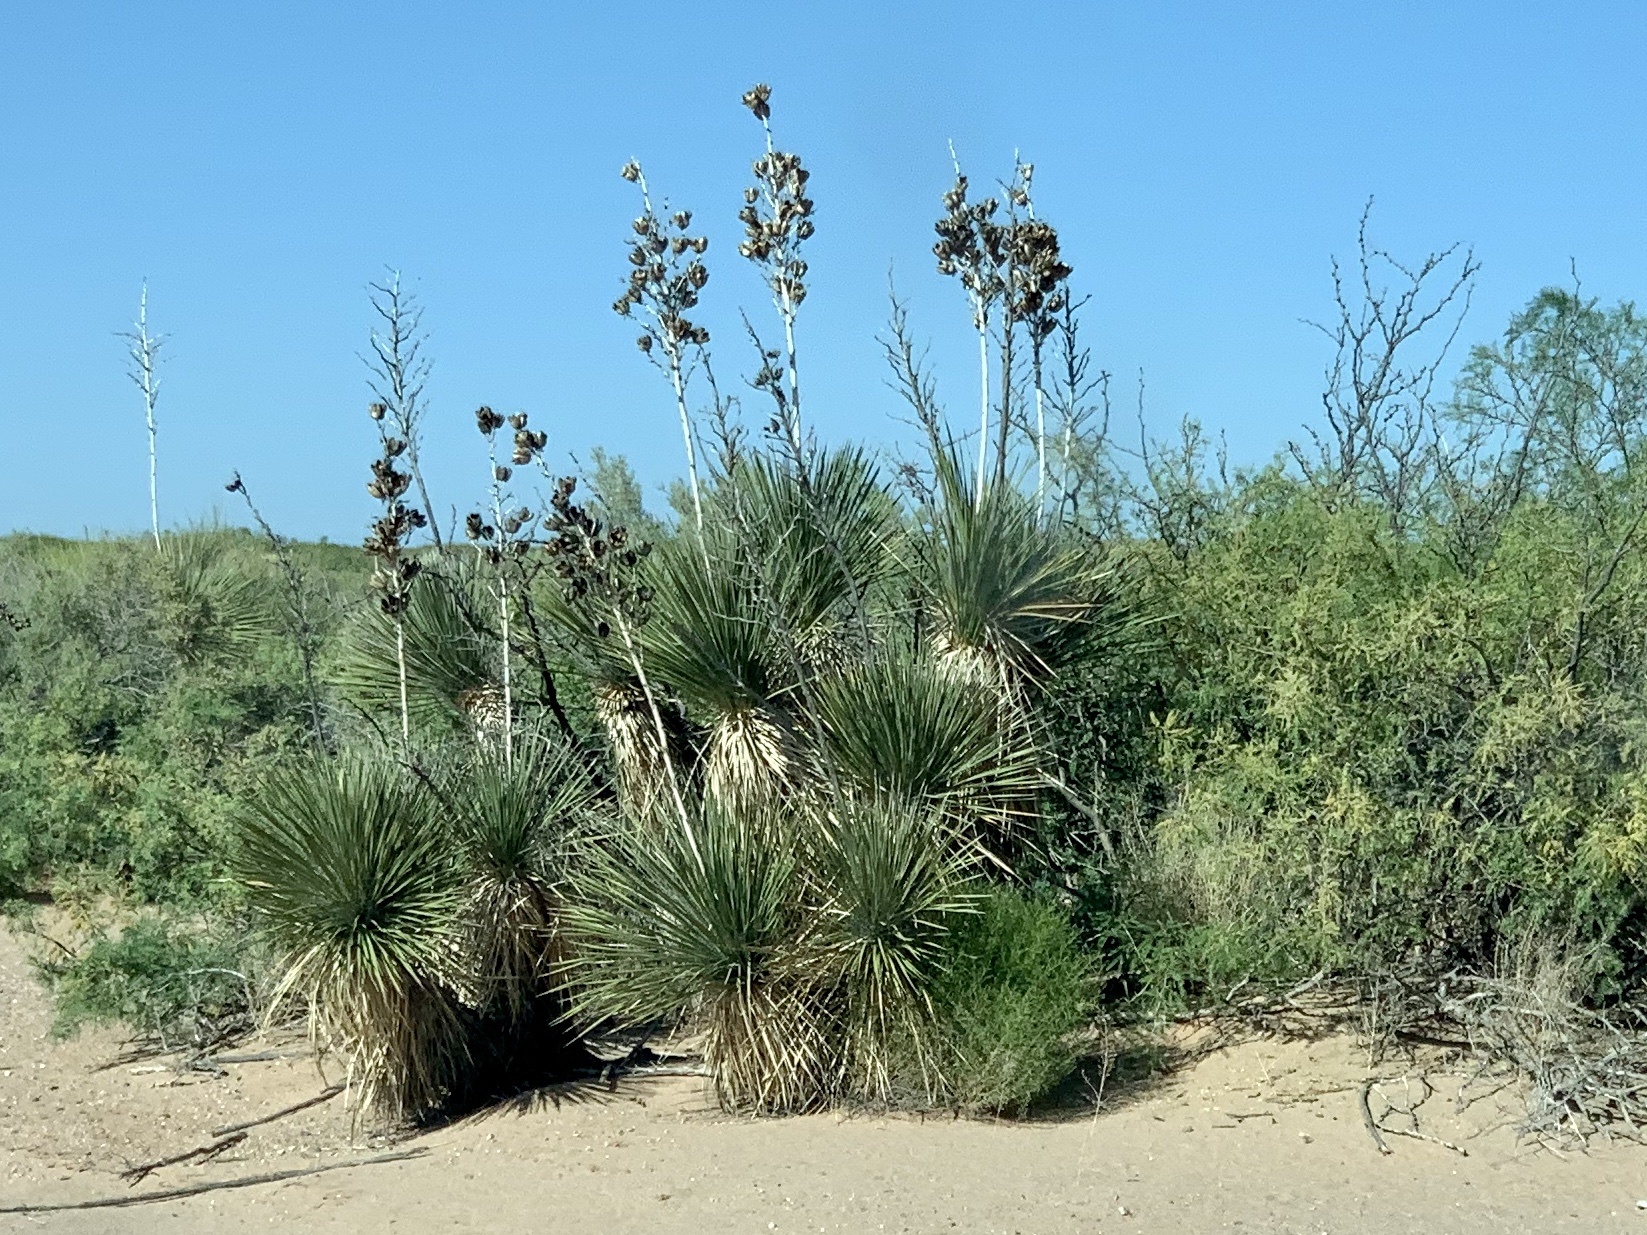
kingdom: Plantae
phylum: Tracheophyta
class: Liliopsida
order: Asparagales
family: Asparagaceae
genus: Yucca
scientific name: Yucca elata
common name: Palmella
